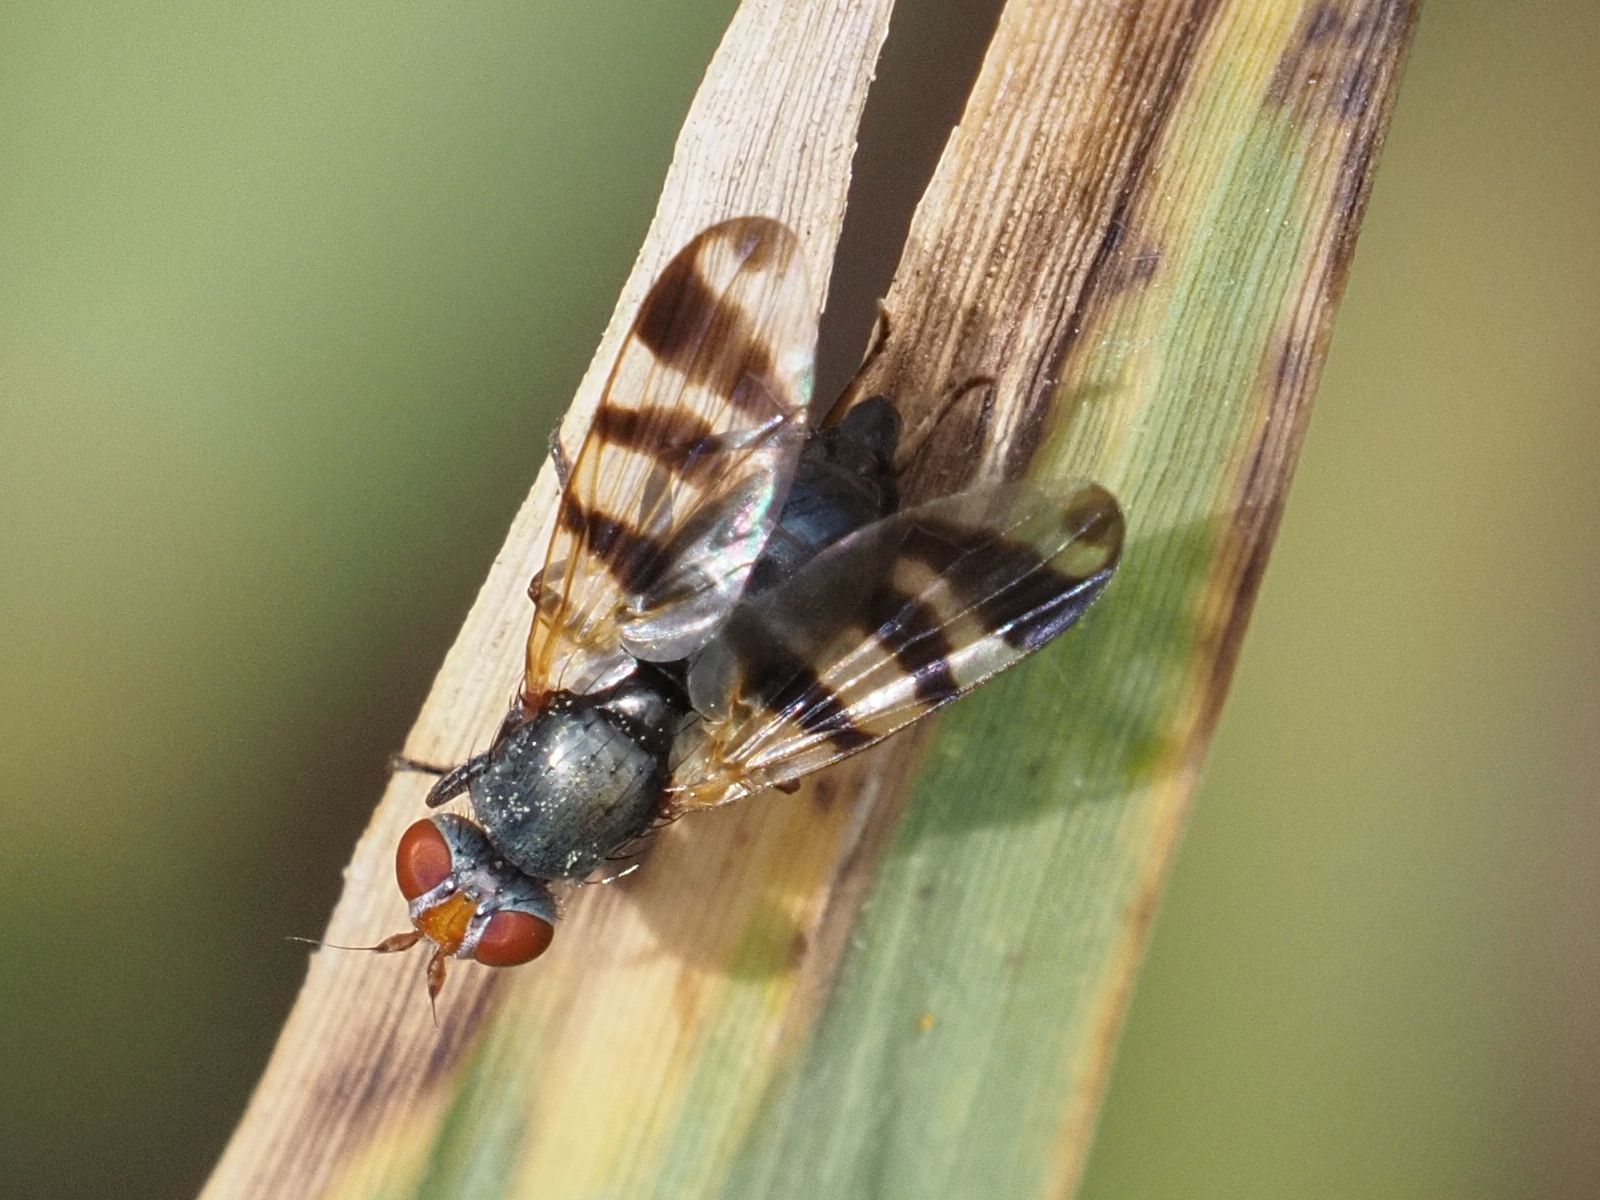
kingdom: Animalia
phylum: Arthropoda
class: Insecta
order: Diptera
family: Ulidiidae
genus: Ceroxys
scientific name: Ceroxys urticae
